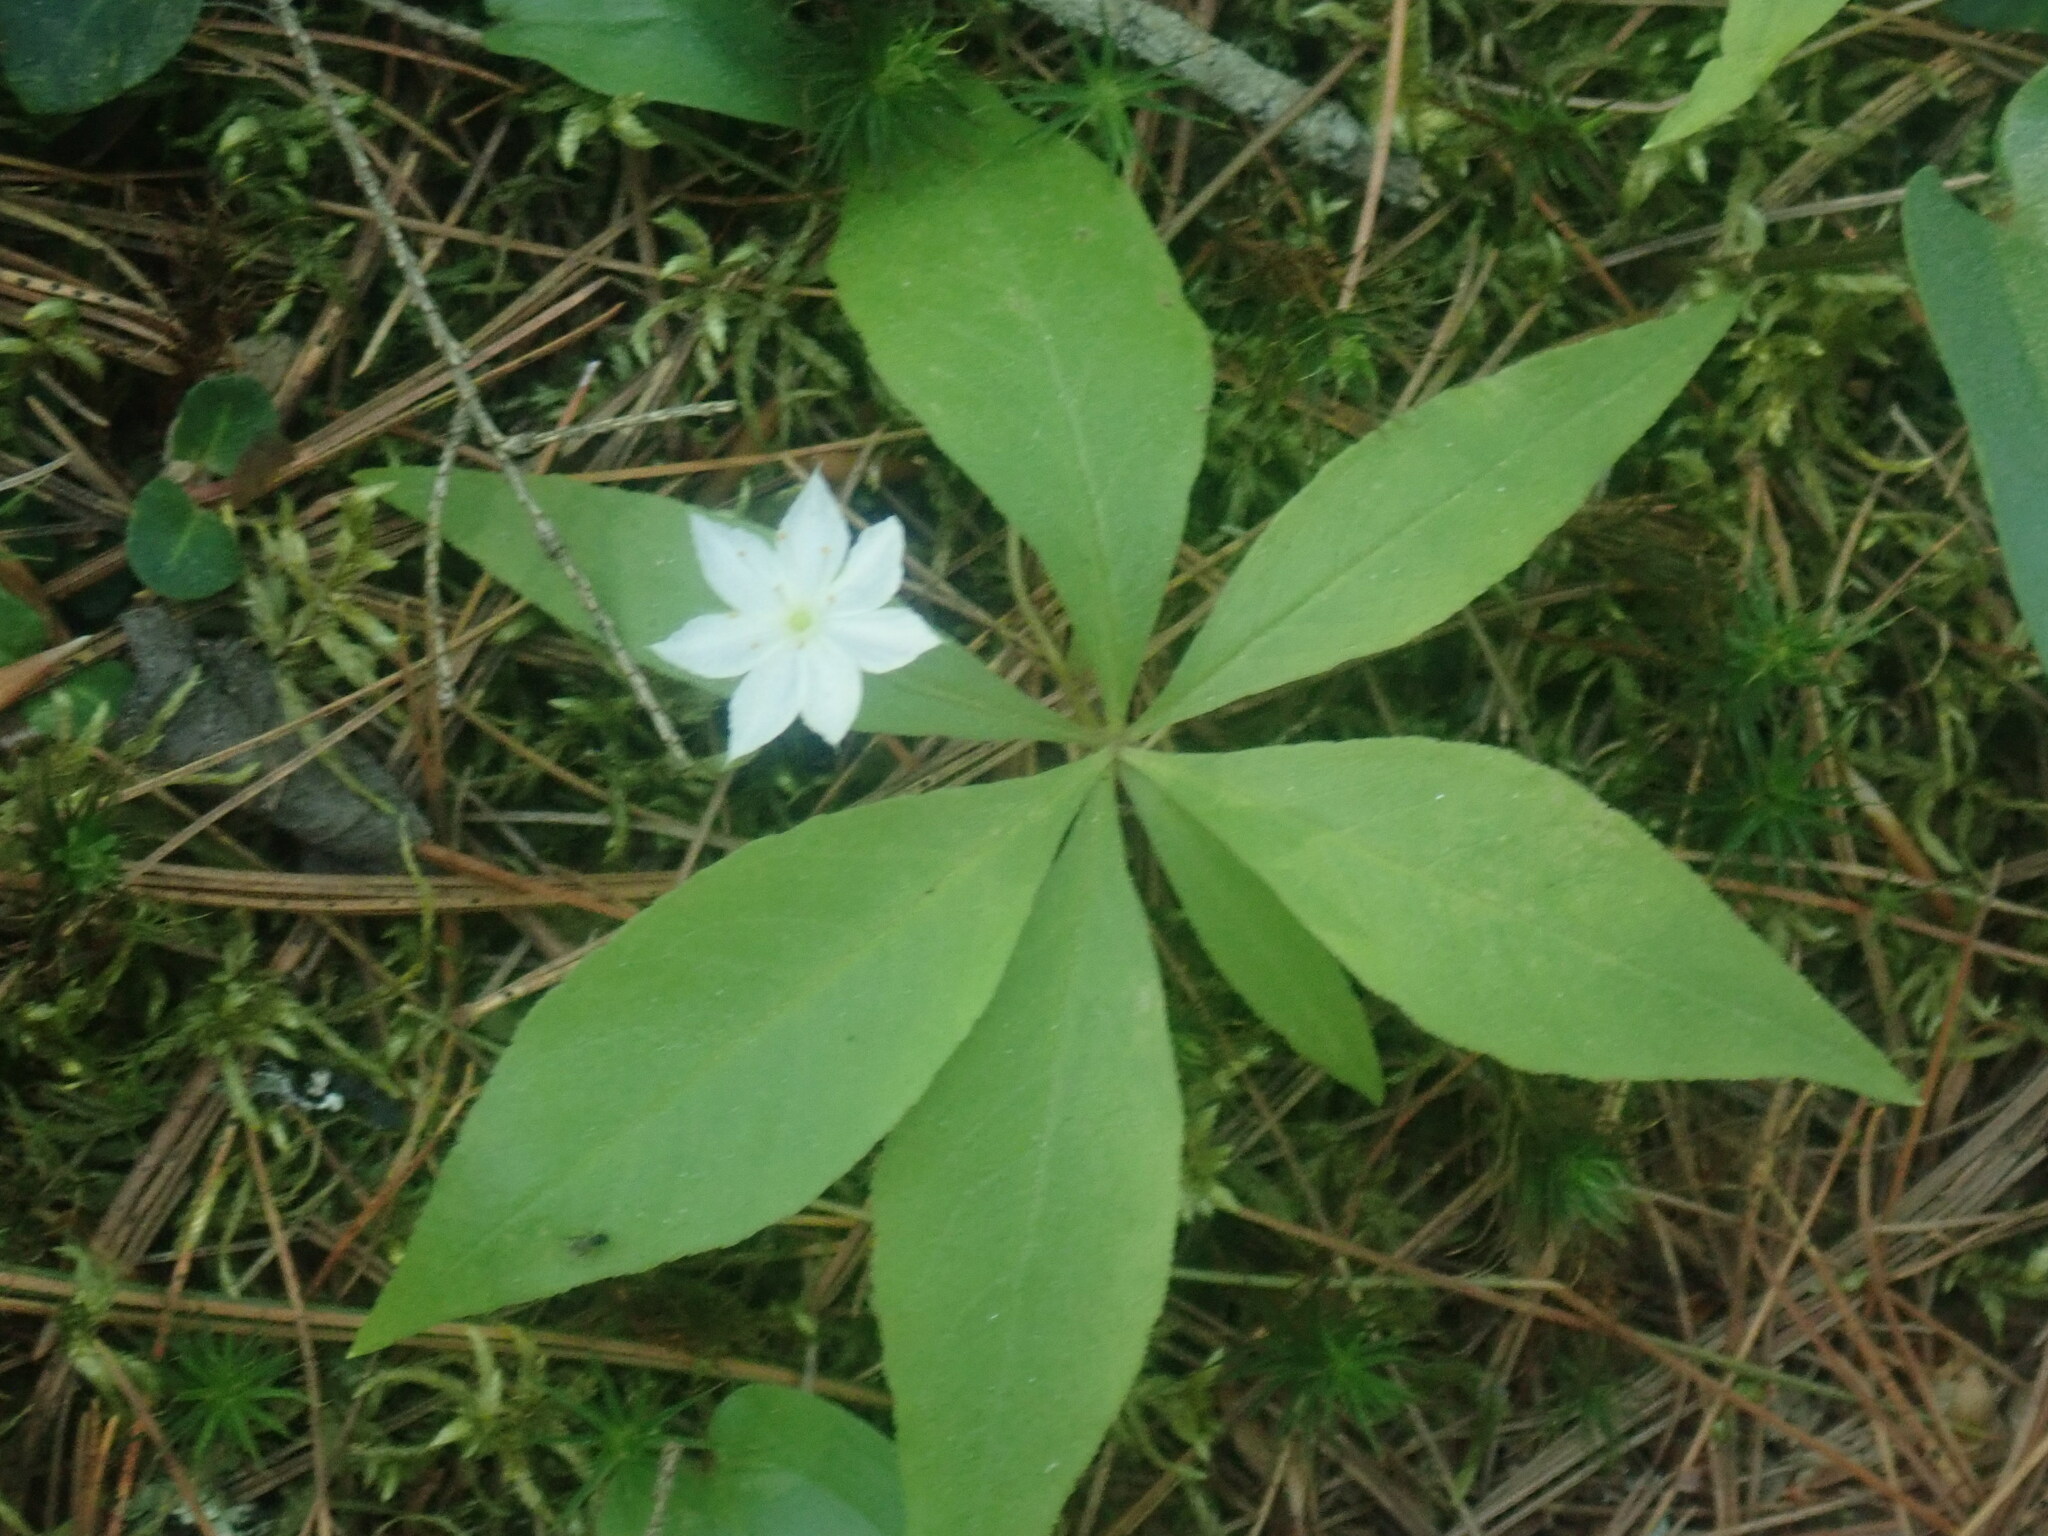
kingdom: Plantae
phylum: Tracheophyta
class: Magnoliopsida
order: Ericales
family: Primulaceae
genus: Lysimachia
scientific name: Lysimachia borealis
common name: American starflower
